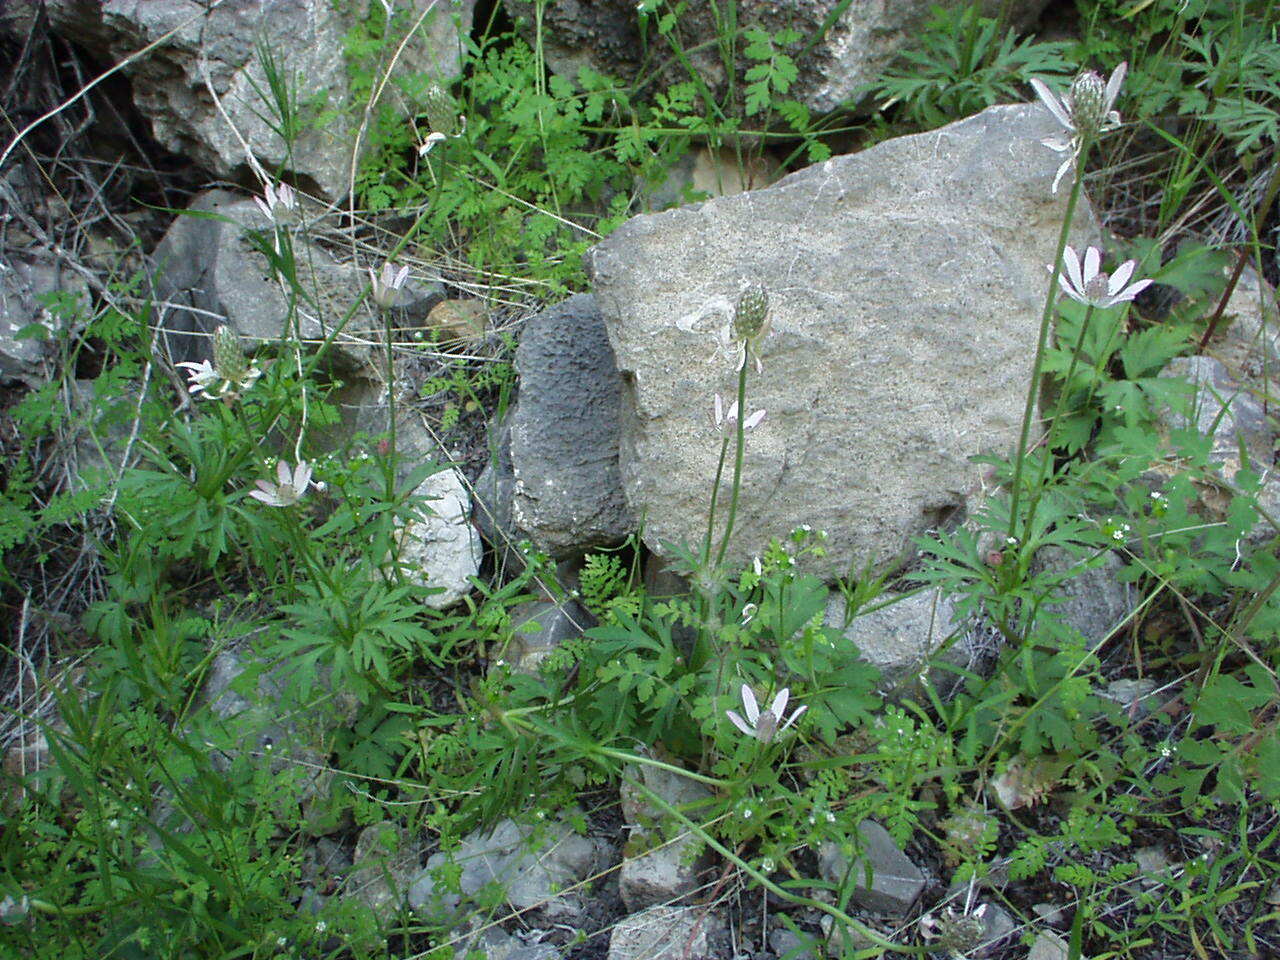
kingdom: Plantae
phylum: Tracheophyta
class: Magnoliopsida
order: Ranunculales
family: Ranunculaceae
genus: Anemone
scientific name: Anemone tuberosa
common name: Desert anemone
